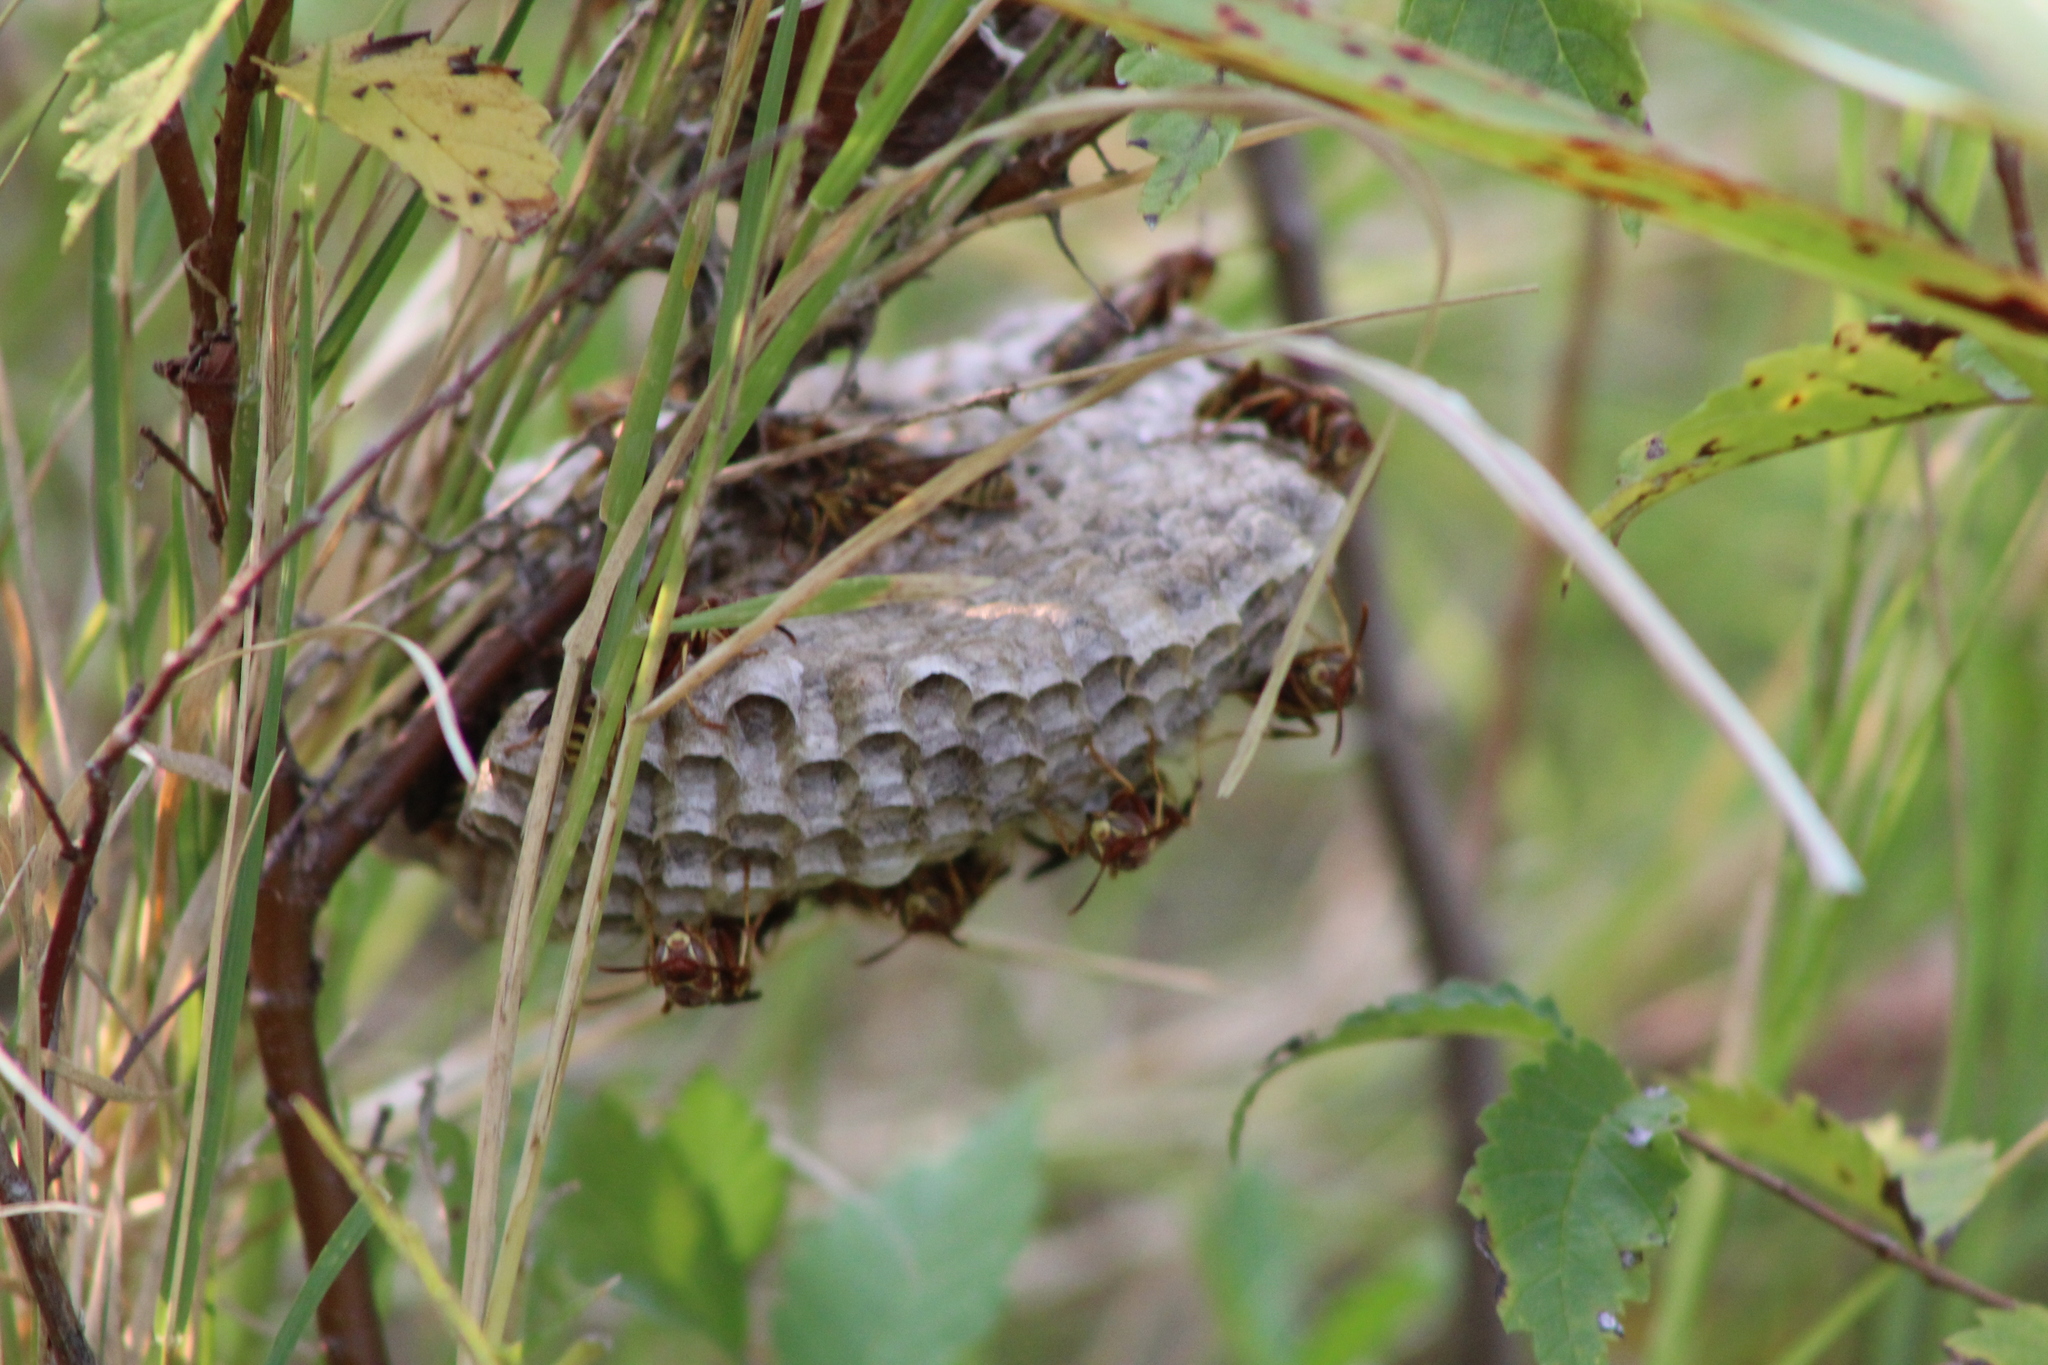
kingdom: Animalia
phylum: Arthropoda
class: Insecta
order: Hymenoptera
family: Vespidae
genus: Fuscopolistes
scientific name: Fuscopolistes
